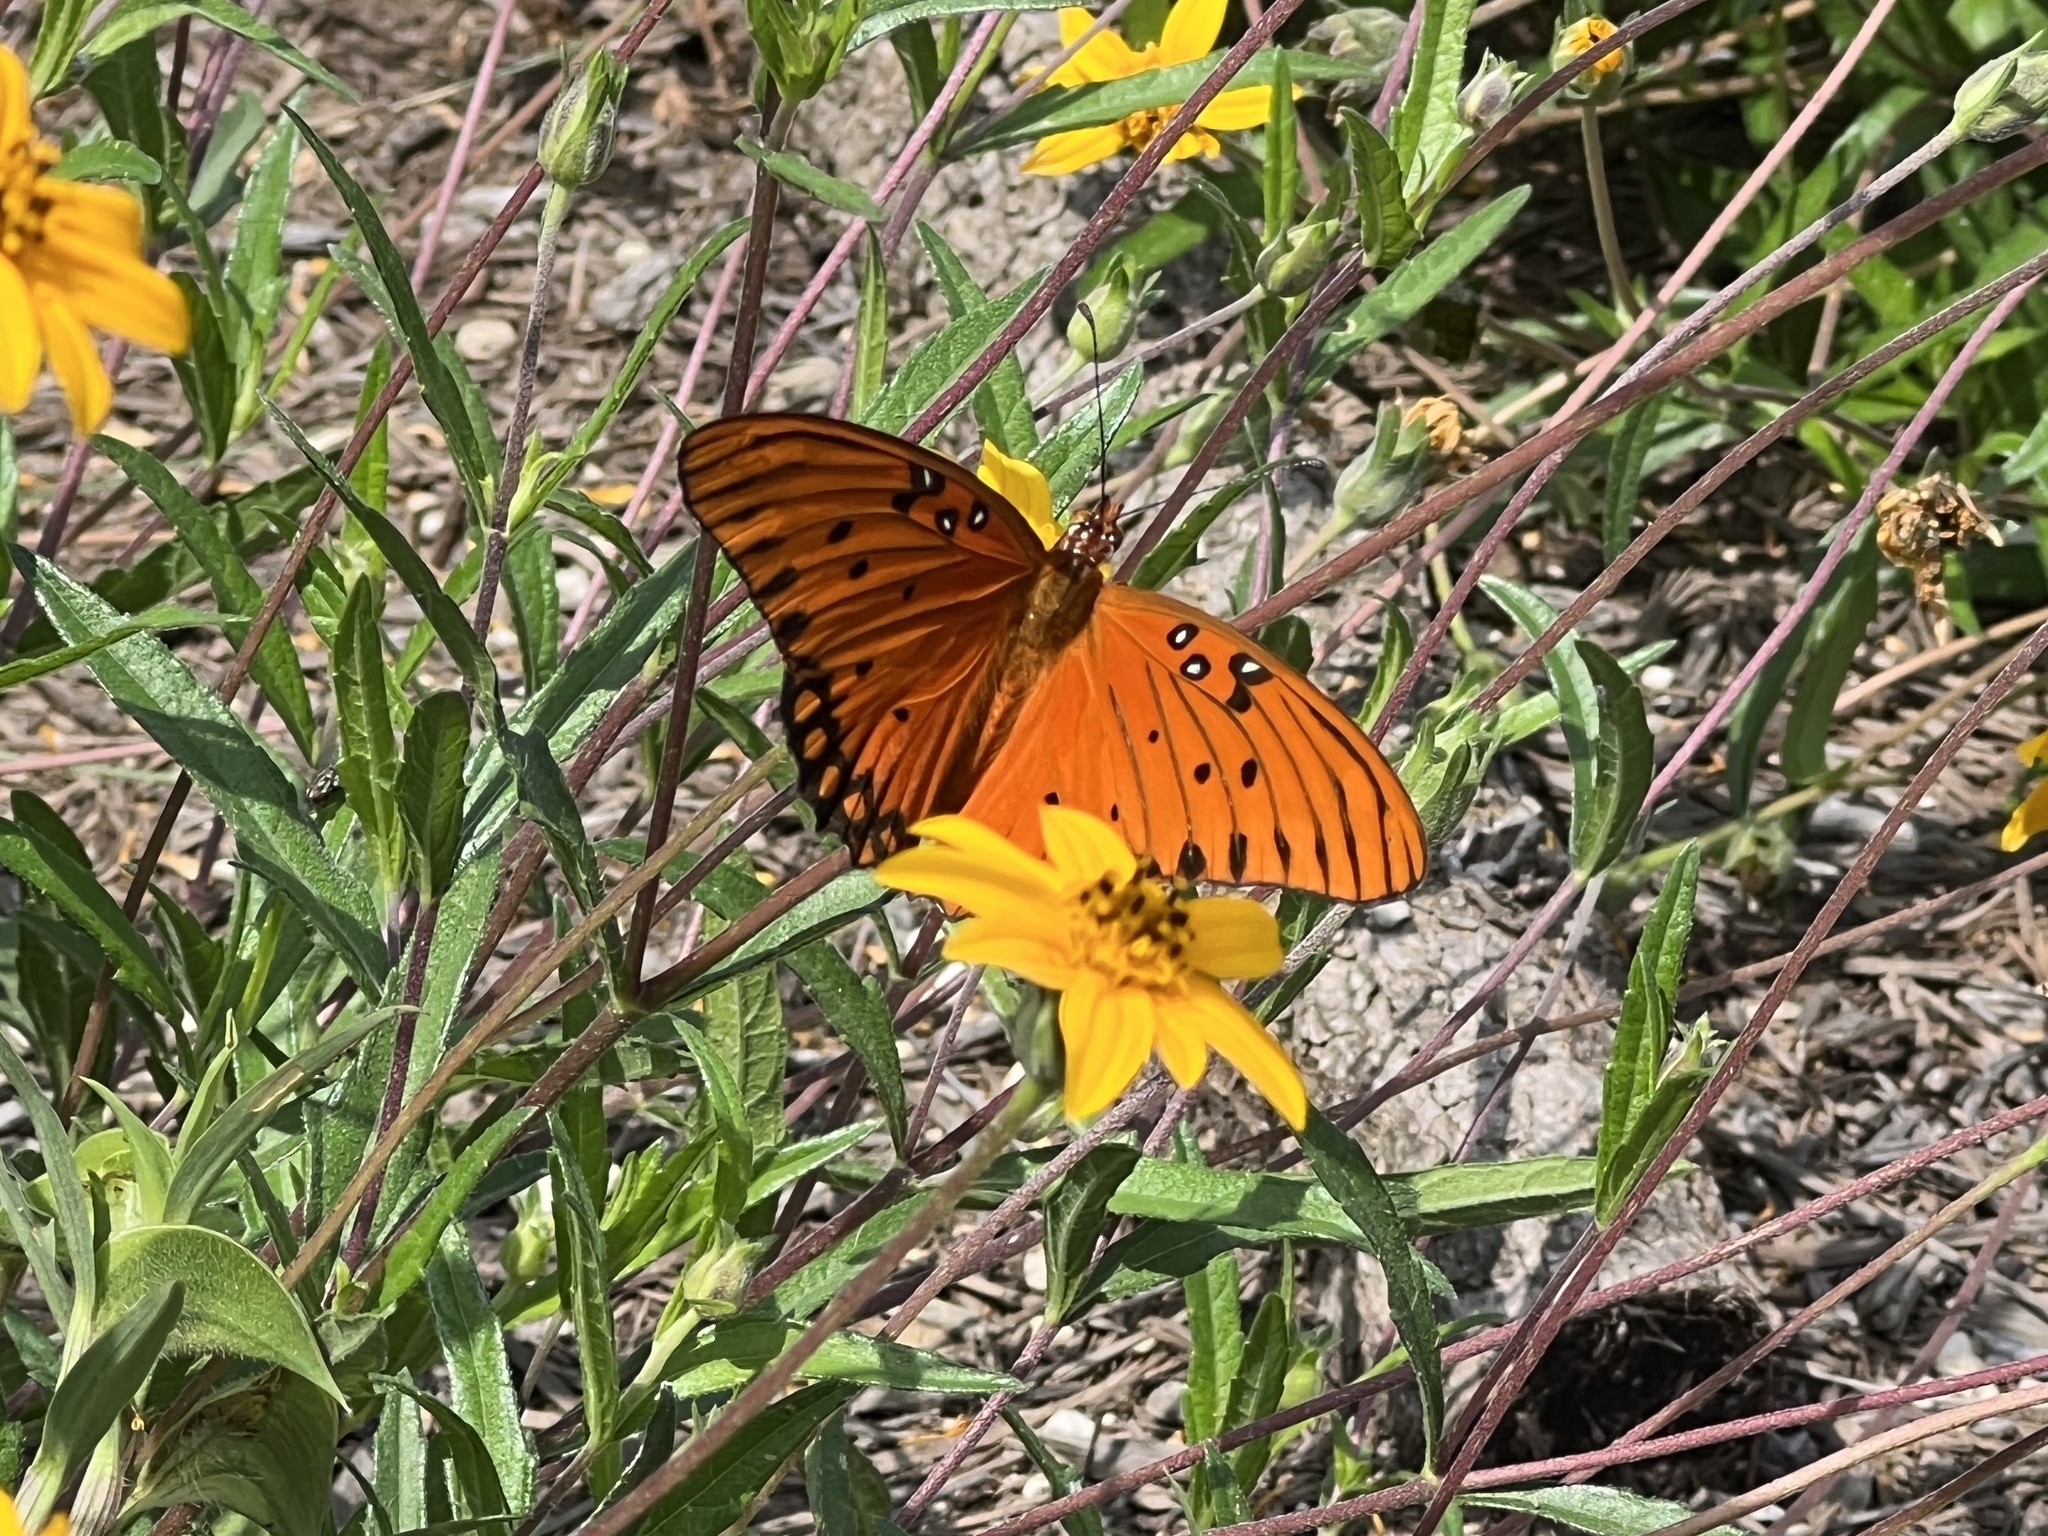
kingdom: Animalia
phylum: Arthropoda
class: Insecta
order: Lepidoptera
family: Nymphalidae
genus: Dione
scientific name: Dione vanillae
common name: Gulf fritillary
